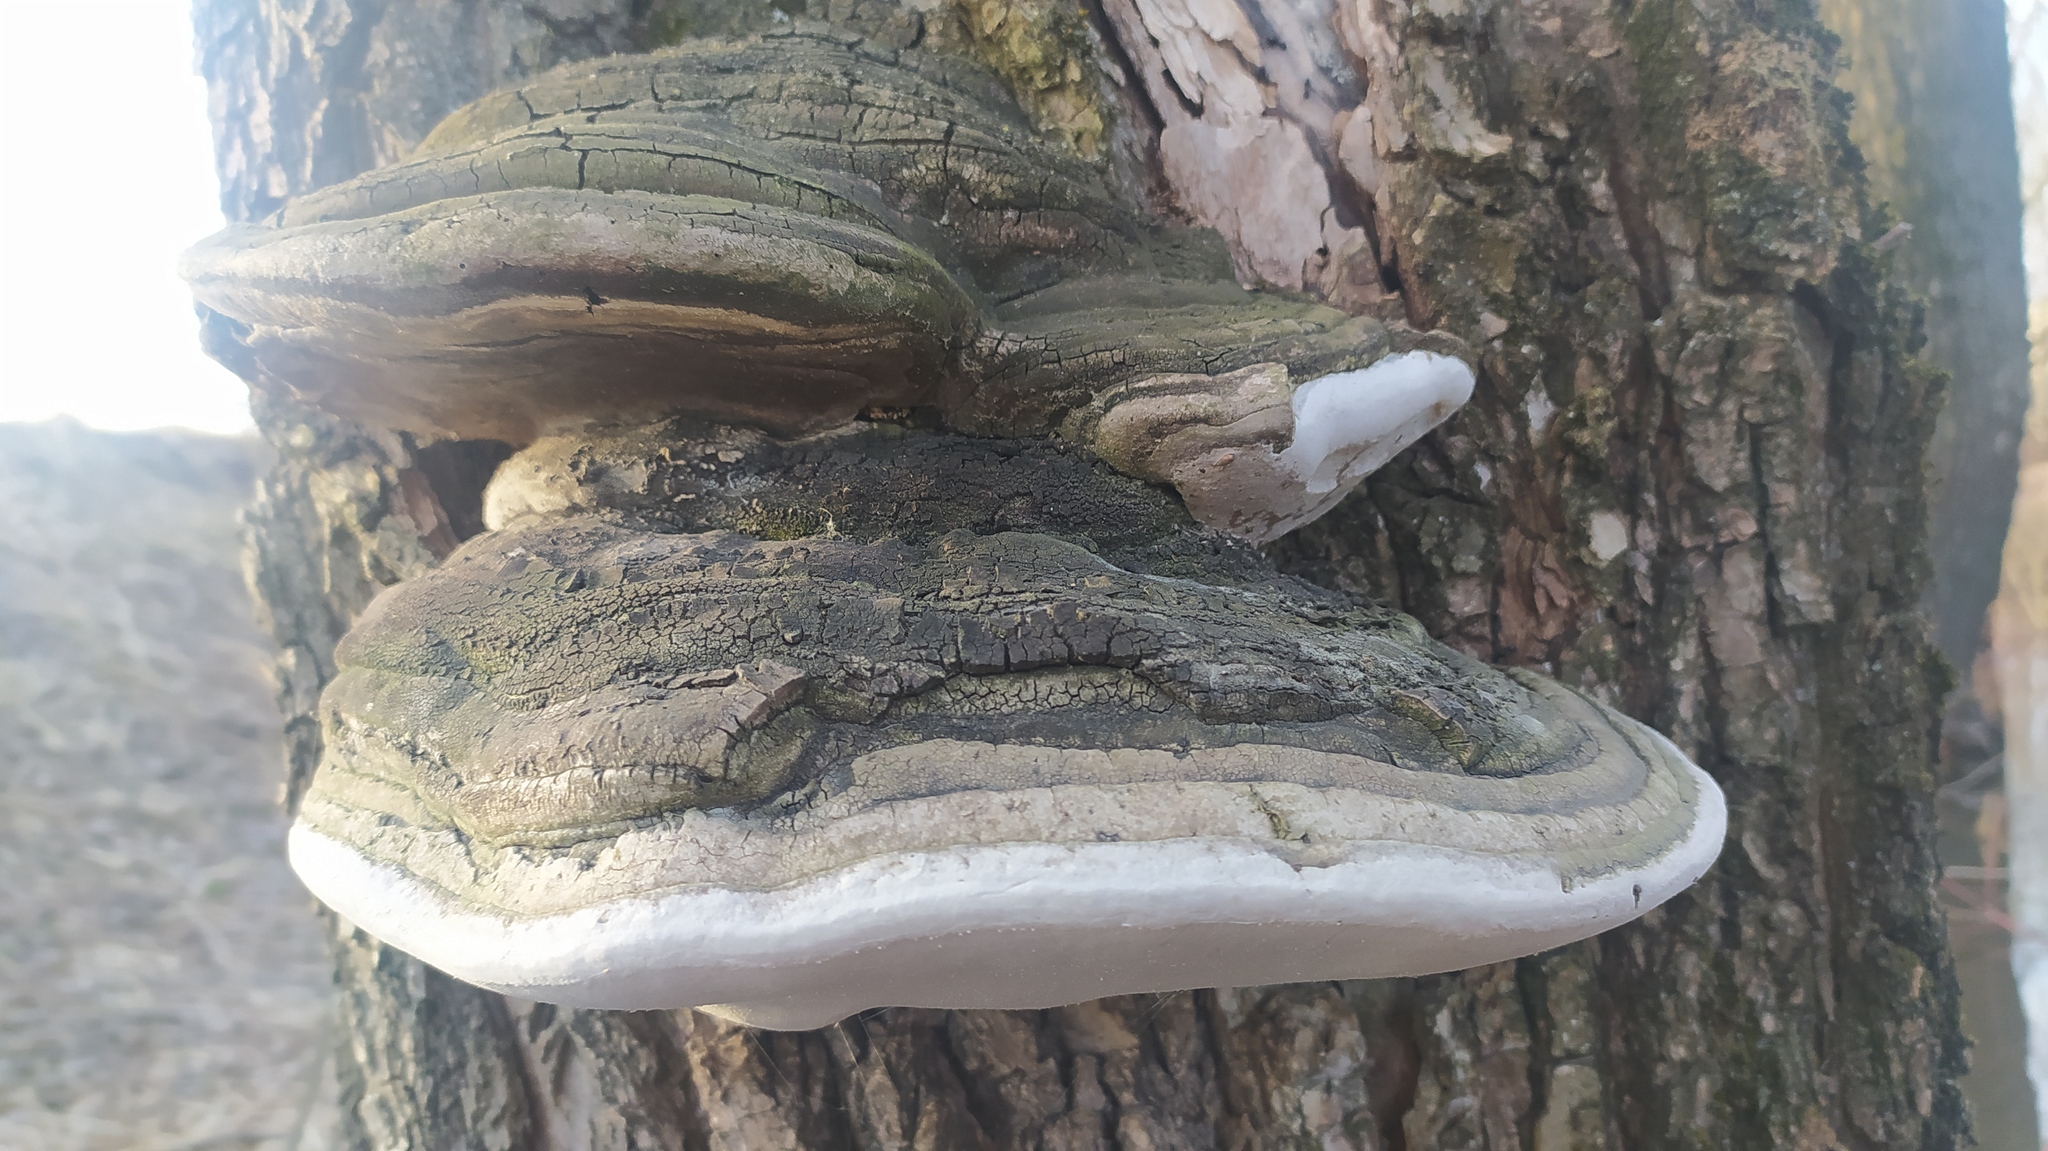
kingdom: Fungi
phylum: Basidiomycota
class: Agaricomycetes
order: Hymenochaetales
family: Hymenochaetaceae
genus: Phellinus
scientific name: Phellinus igniarius
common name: Willow bracket
